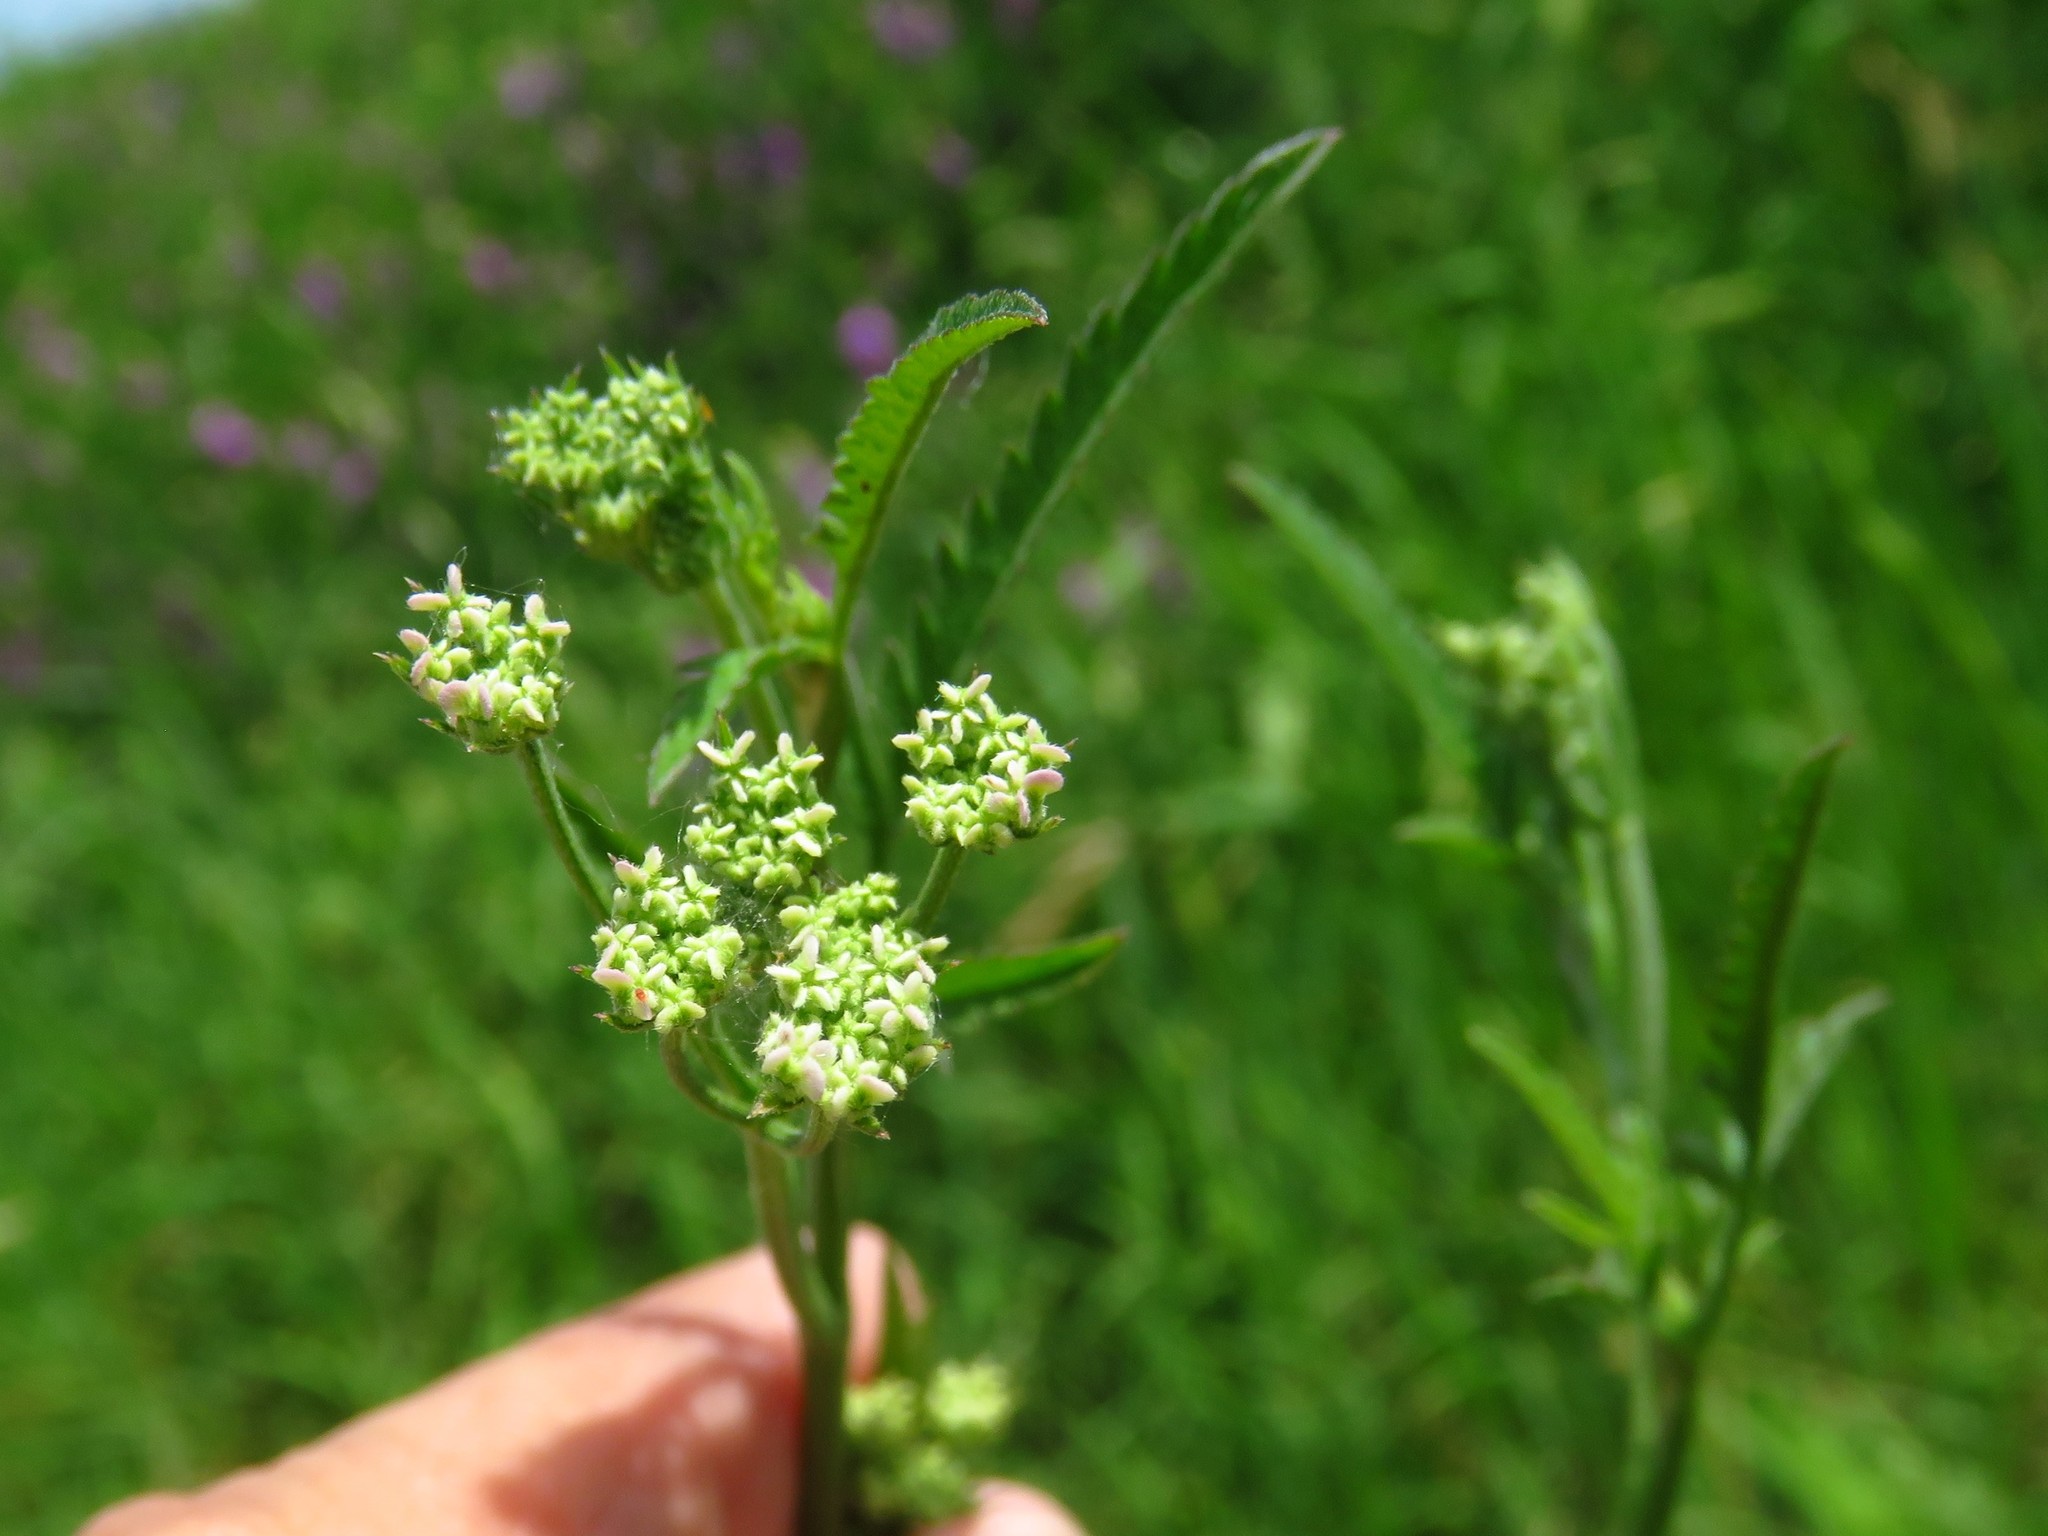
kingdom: Plantae
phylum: Tracheophyta
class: Magnoliopsida
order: Apiales
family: Apiaceae
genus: Torilis
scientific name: Torilis arvensis
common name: Spreading hedge-parsley
